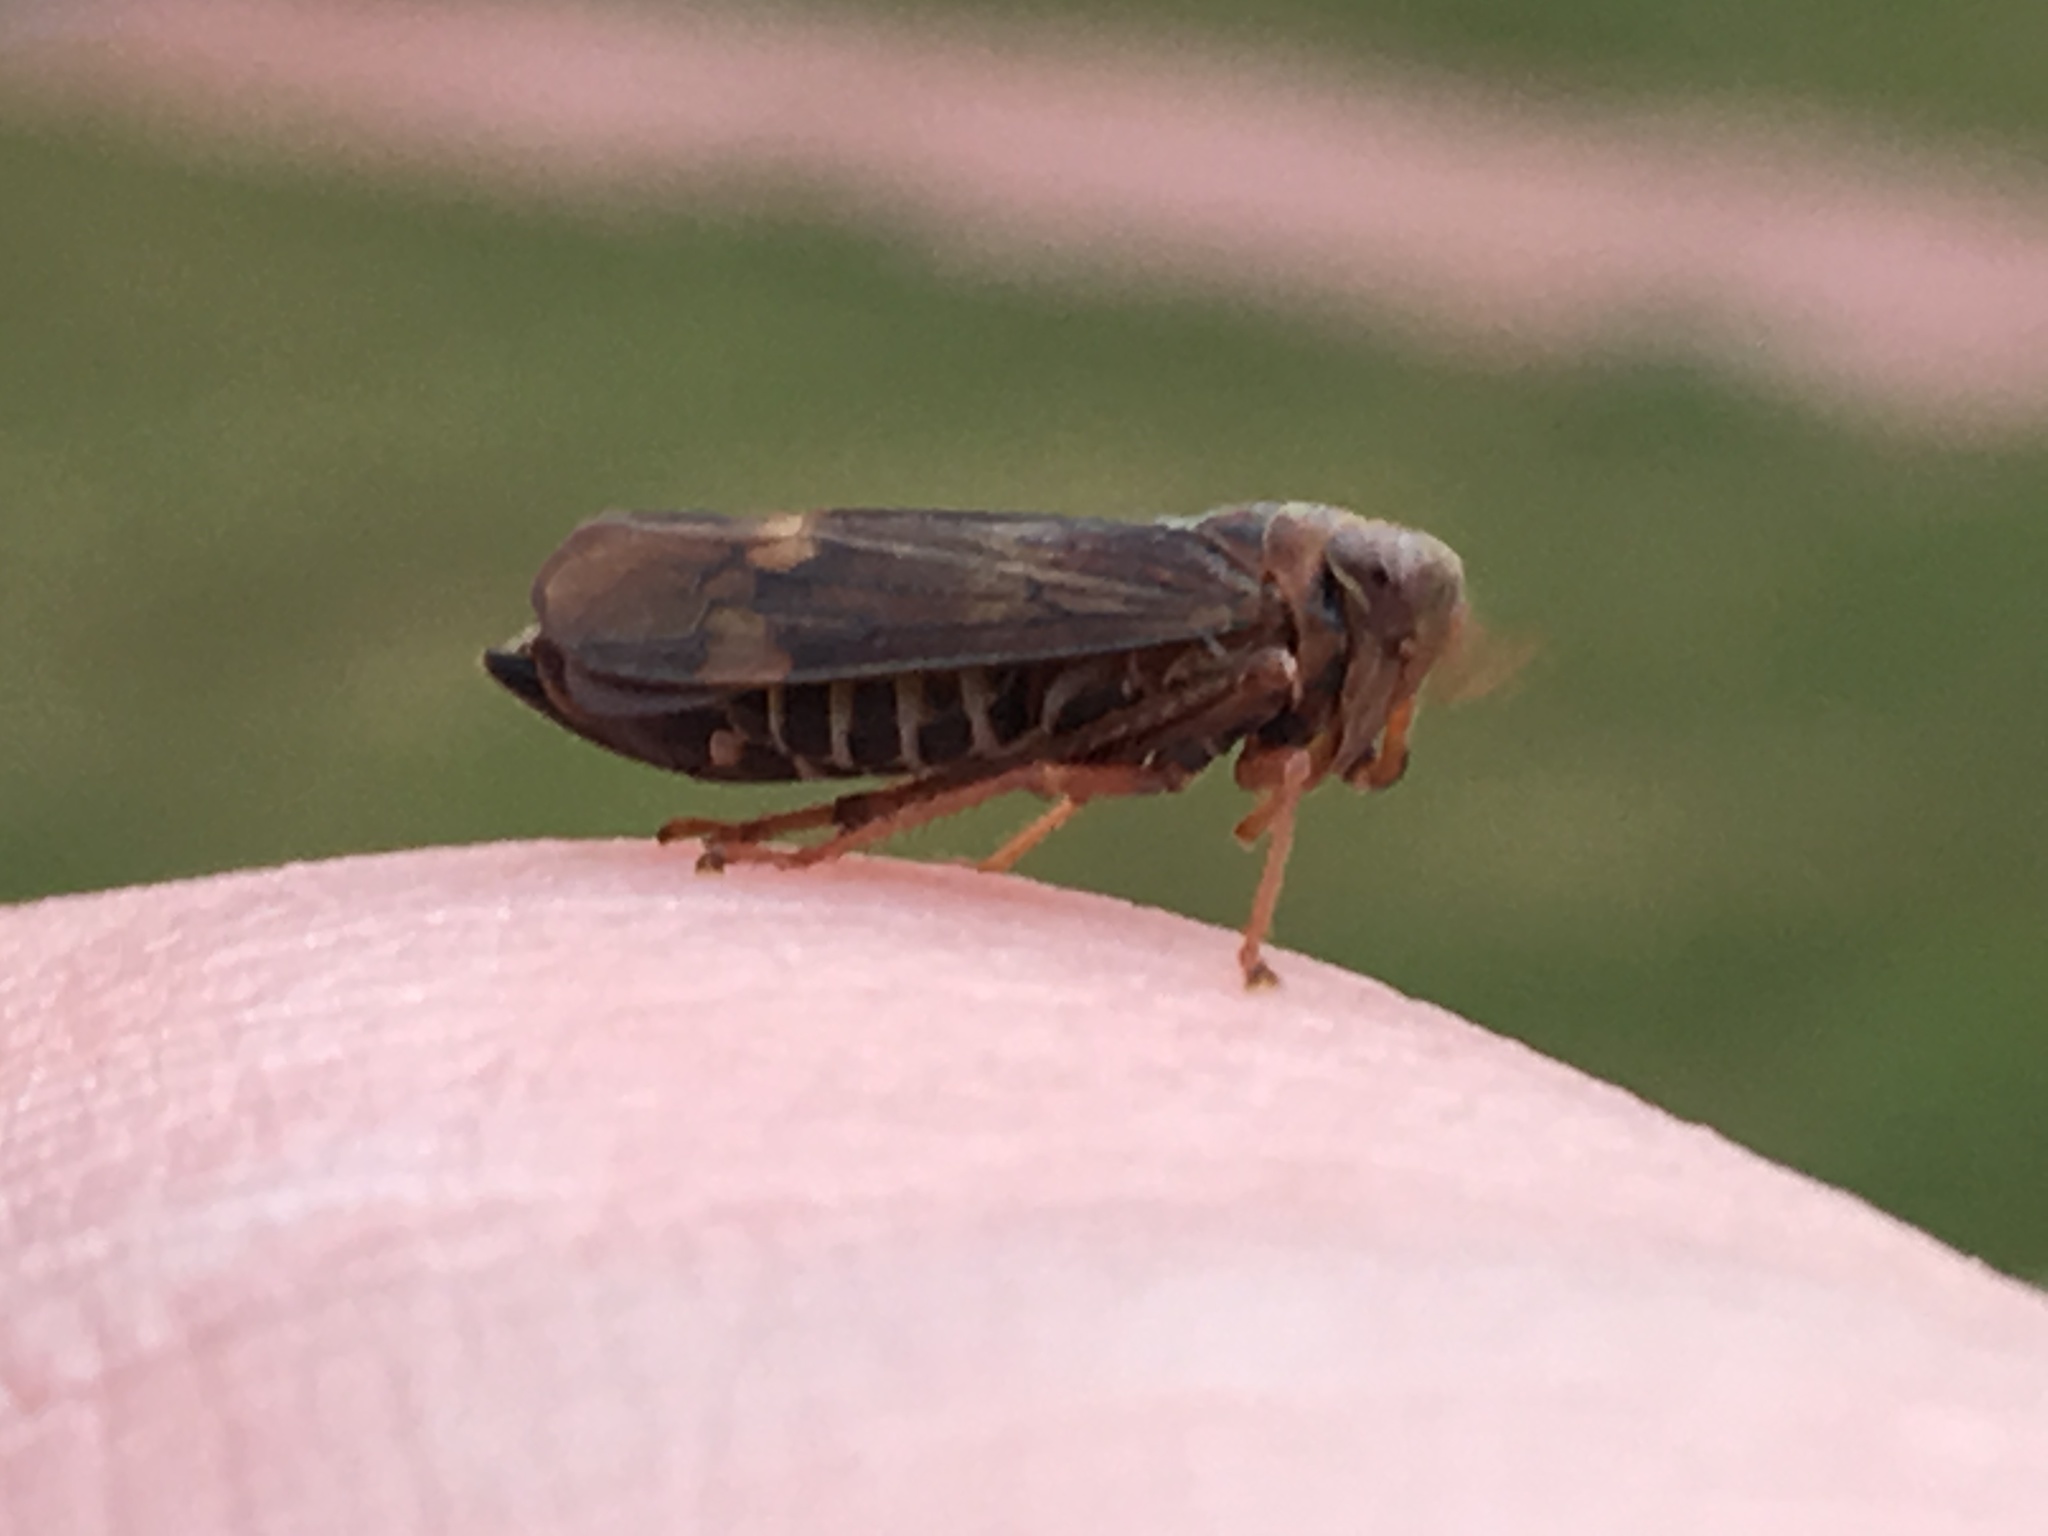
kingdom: Animalia
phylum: Arthropoda
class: Insecta
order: Hemiptera
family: Cicadellidae
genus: Jikradia
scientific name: Jikradia olitoria
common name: Coppery leafhopper
